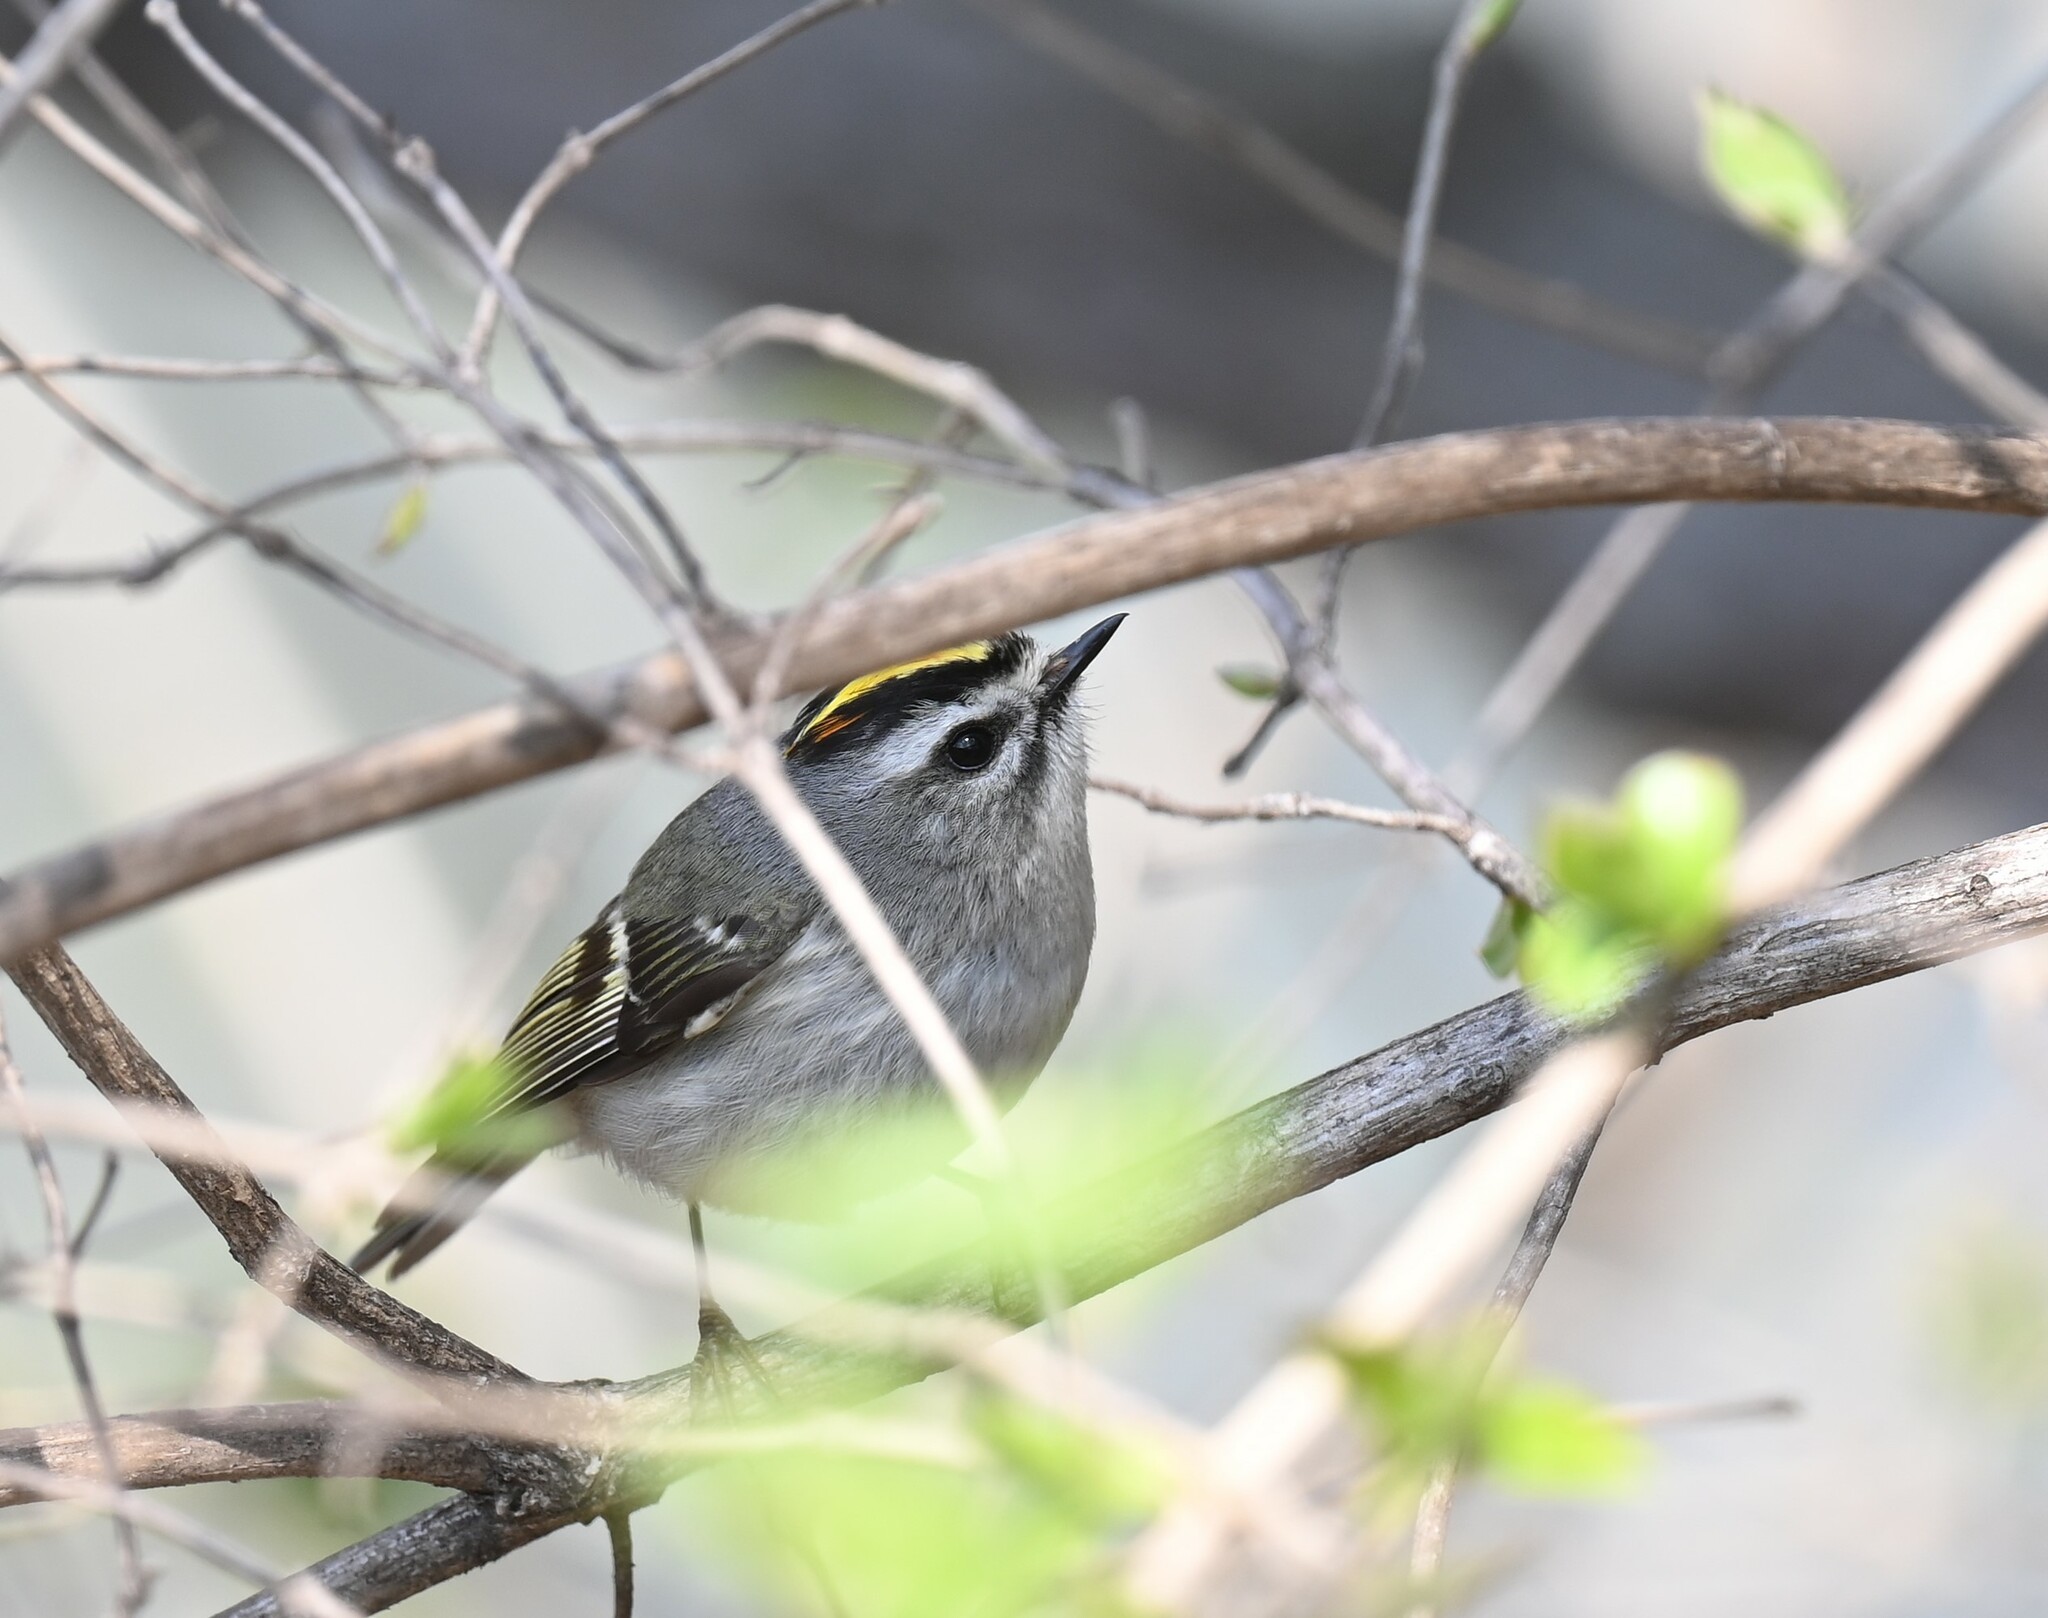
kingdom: Animalia
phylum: Chordata
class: Aves
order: Passeriformes
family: Regulidae
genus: Regulus
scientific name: Regulus satrapa
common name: Golden-crowned kinglet
